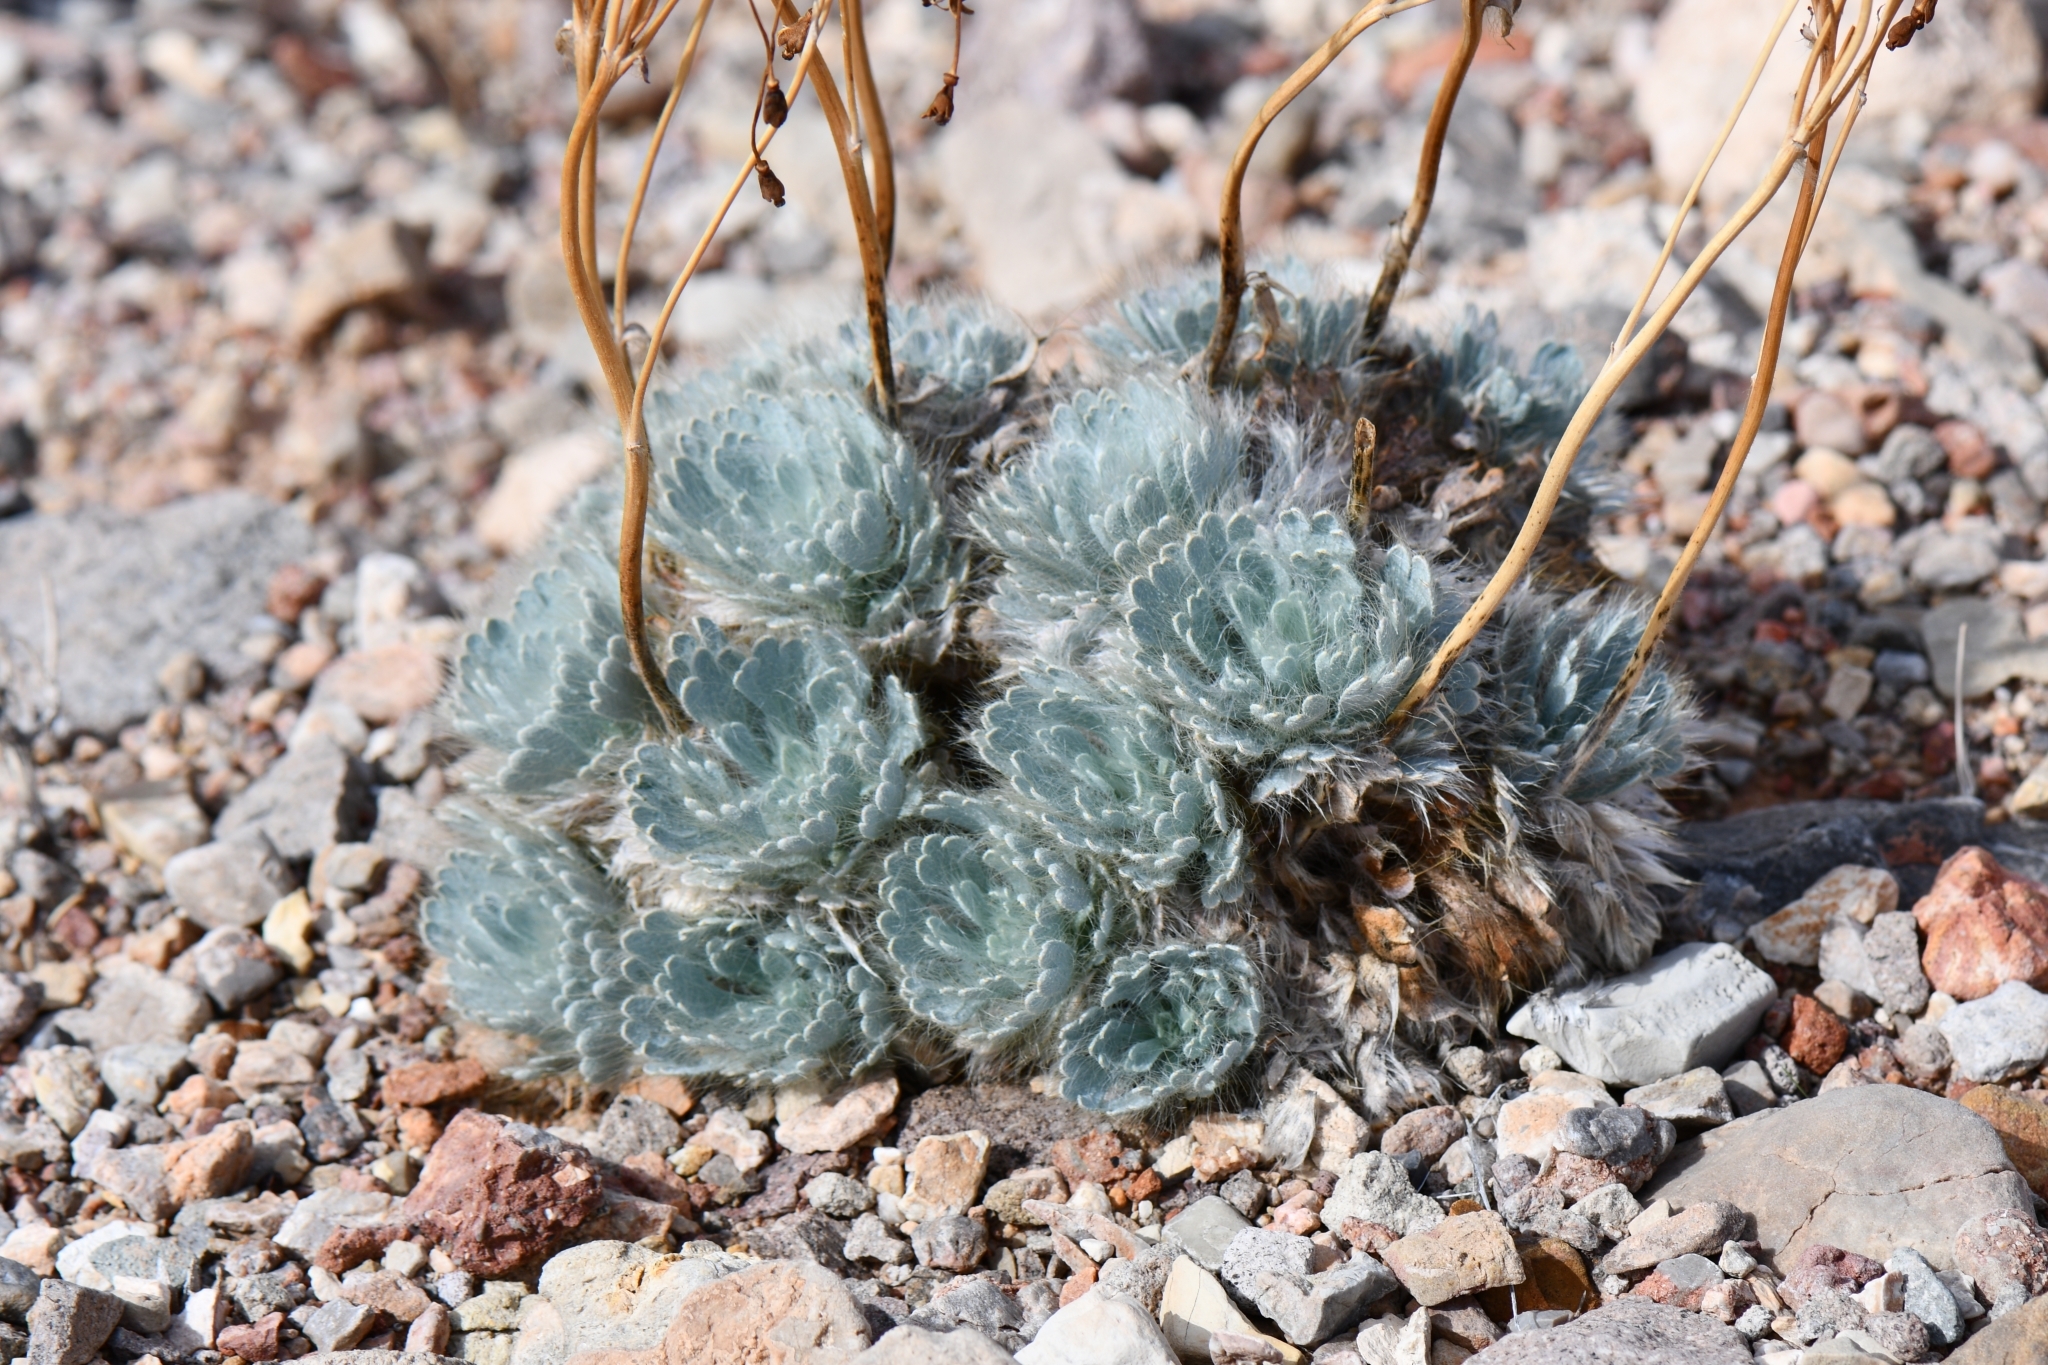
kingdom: Plantae
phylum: Tracheophyta
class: Magnoliopsida
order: Ranunculales
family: Papaveraceae
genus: Arctomecon
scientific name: Arctomecon californicum
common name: Golden bearclaw-poppy
